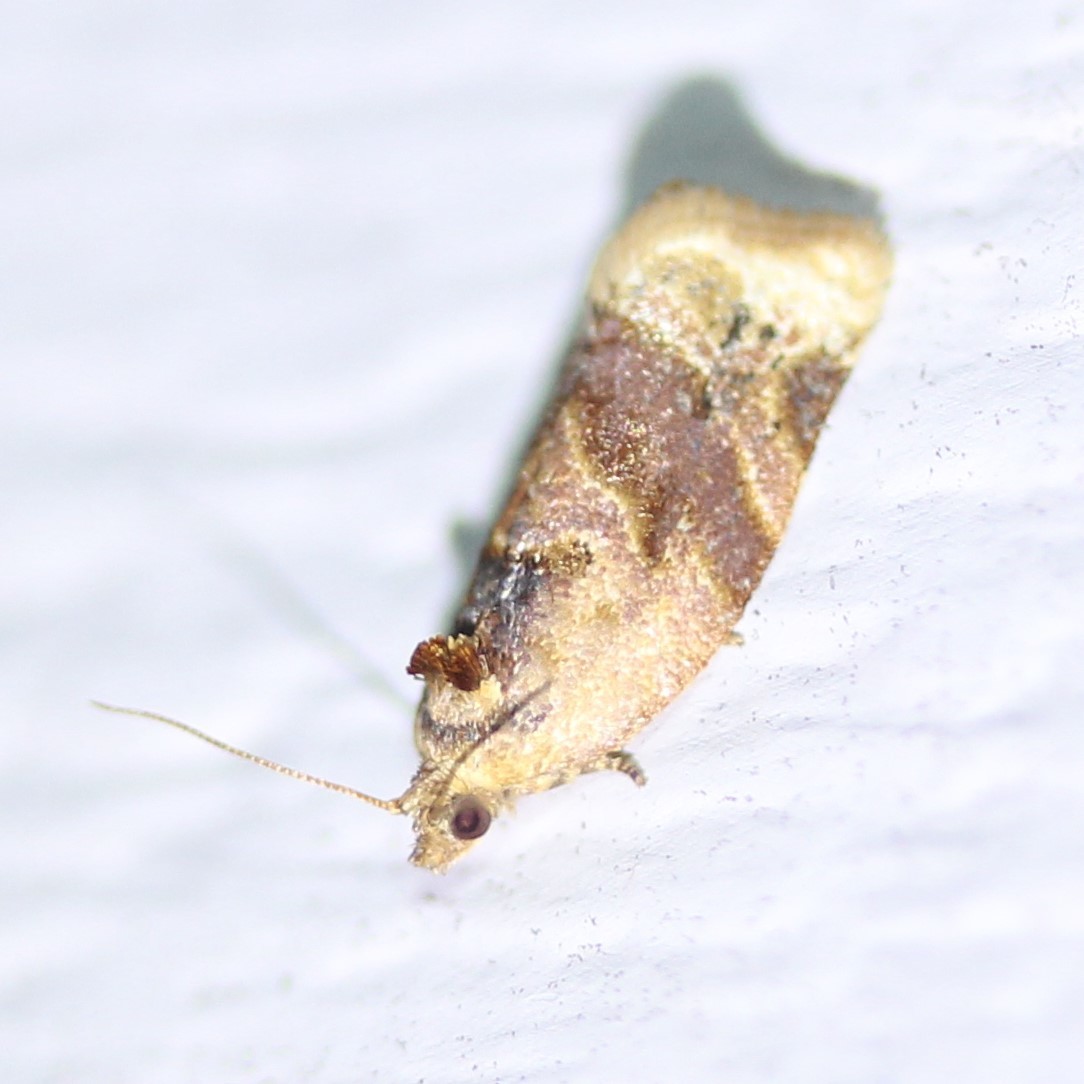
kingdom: Animalia
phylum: Arthropoda
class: Insecta
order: Lepidoptera
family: Tortricidae
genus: Argyrotaenia
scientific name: Argyrotaenia velutinana
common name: Red-banded leafroller moth
